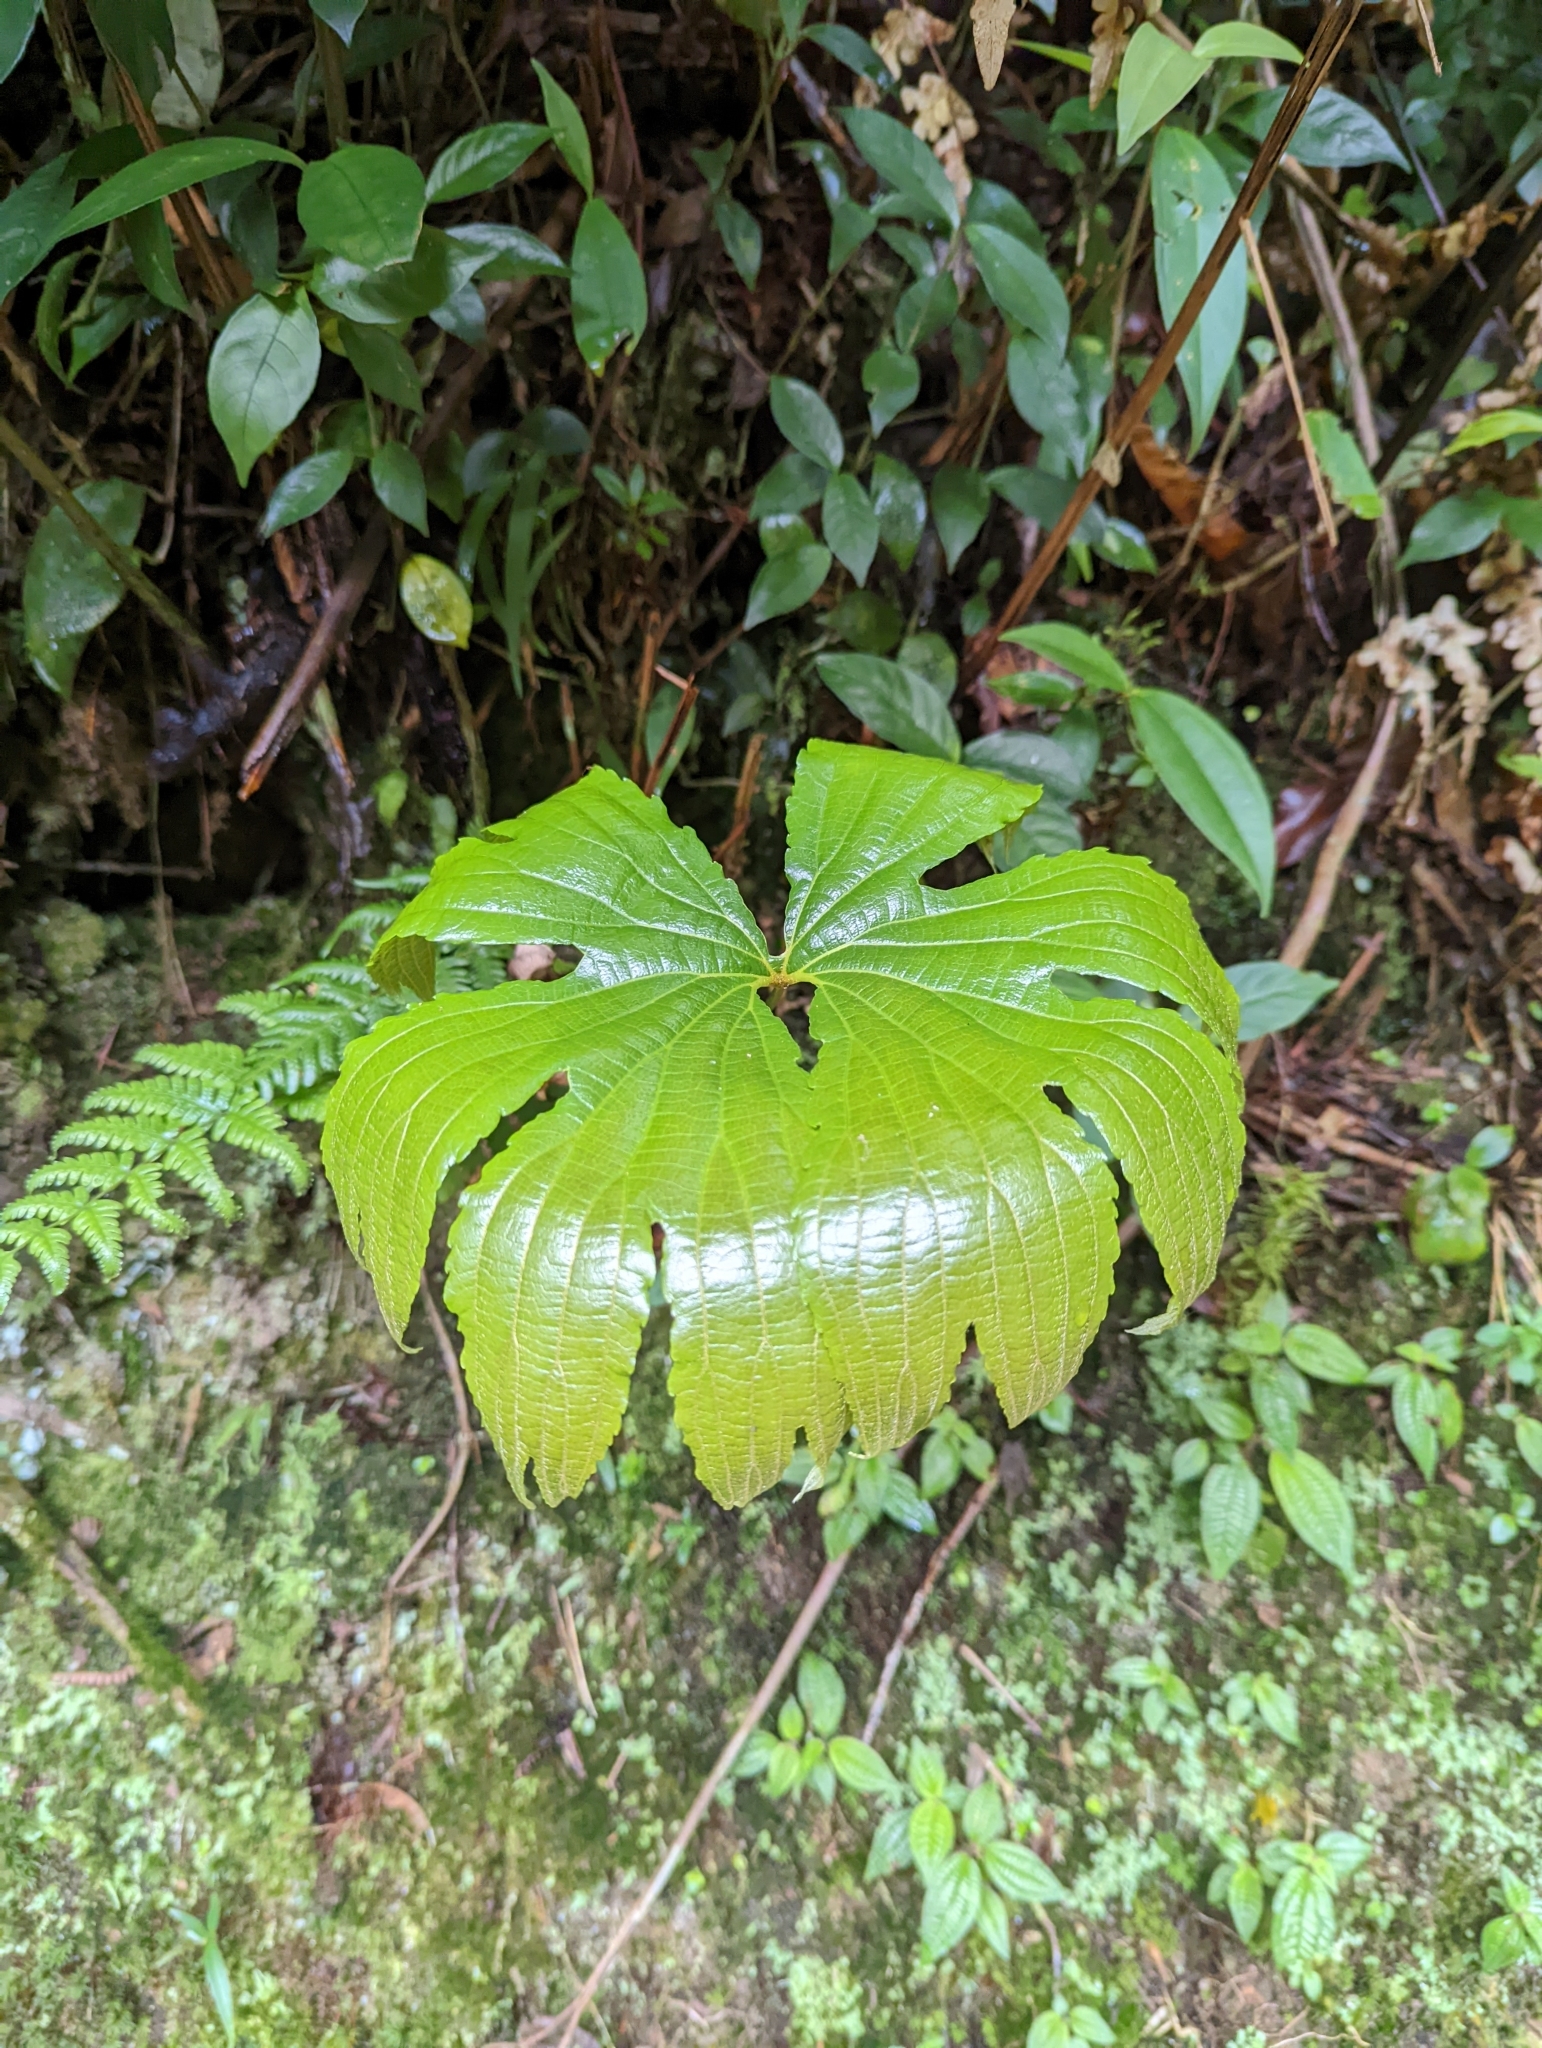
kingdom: Plantae
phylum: Tracheophyta
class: Polypodiopsida
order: Gleicheniales
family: Dipteridaceae
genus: Dipteris
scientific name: Dipteris conjugata
